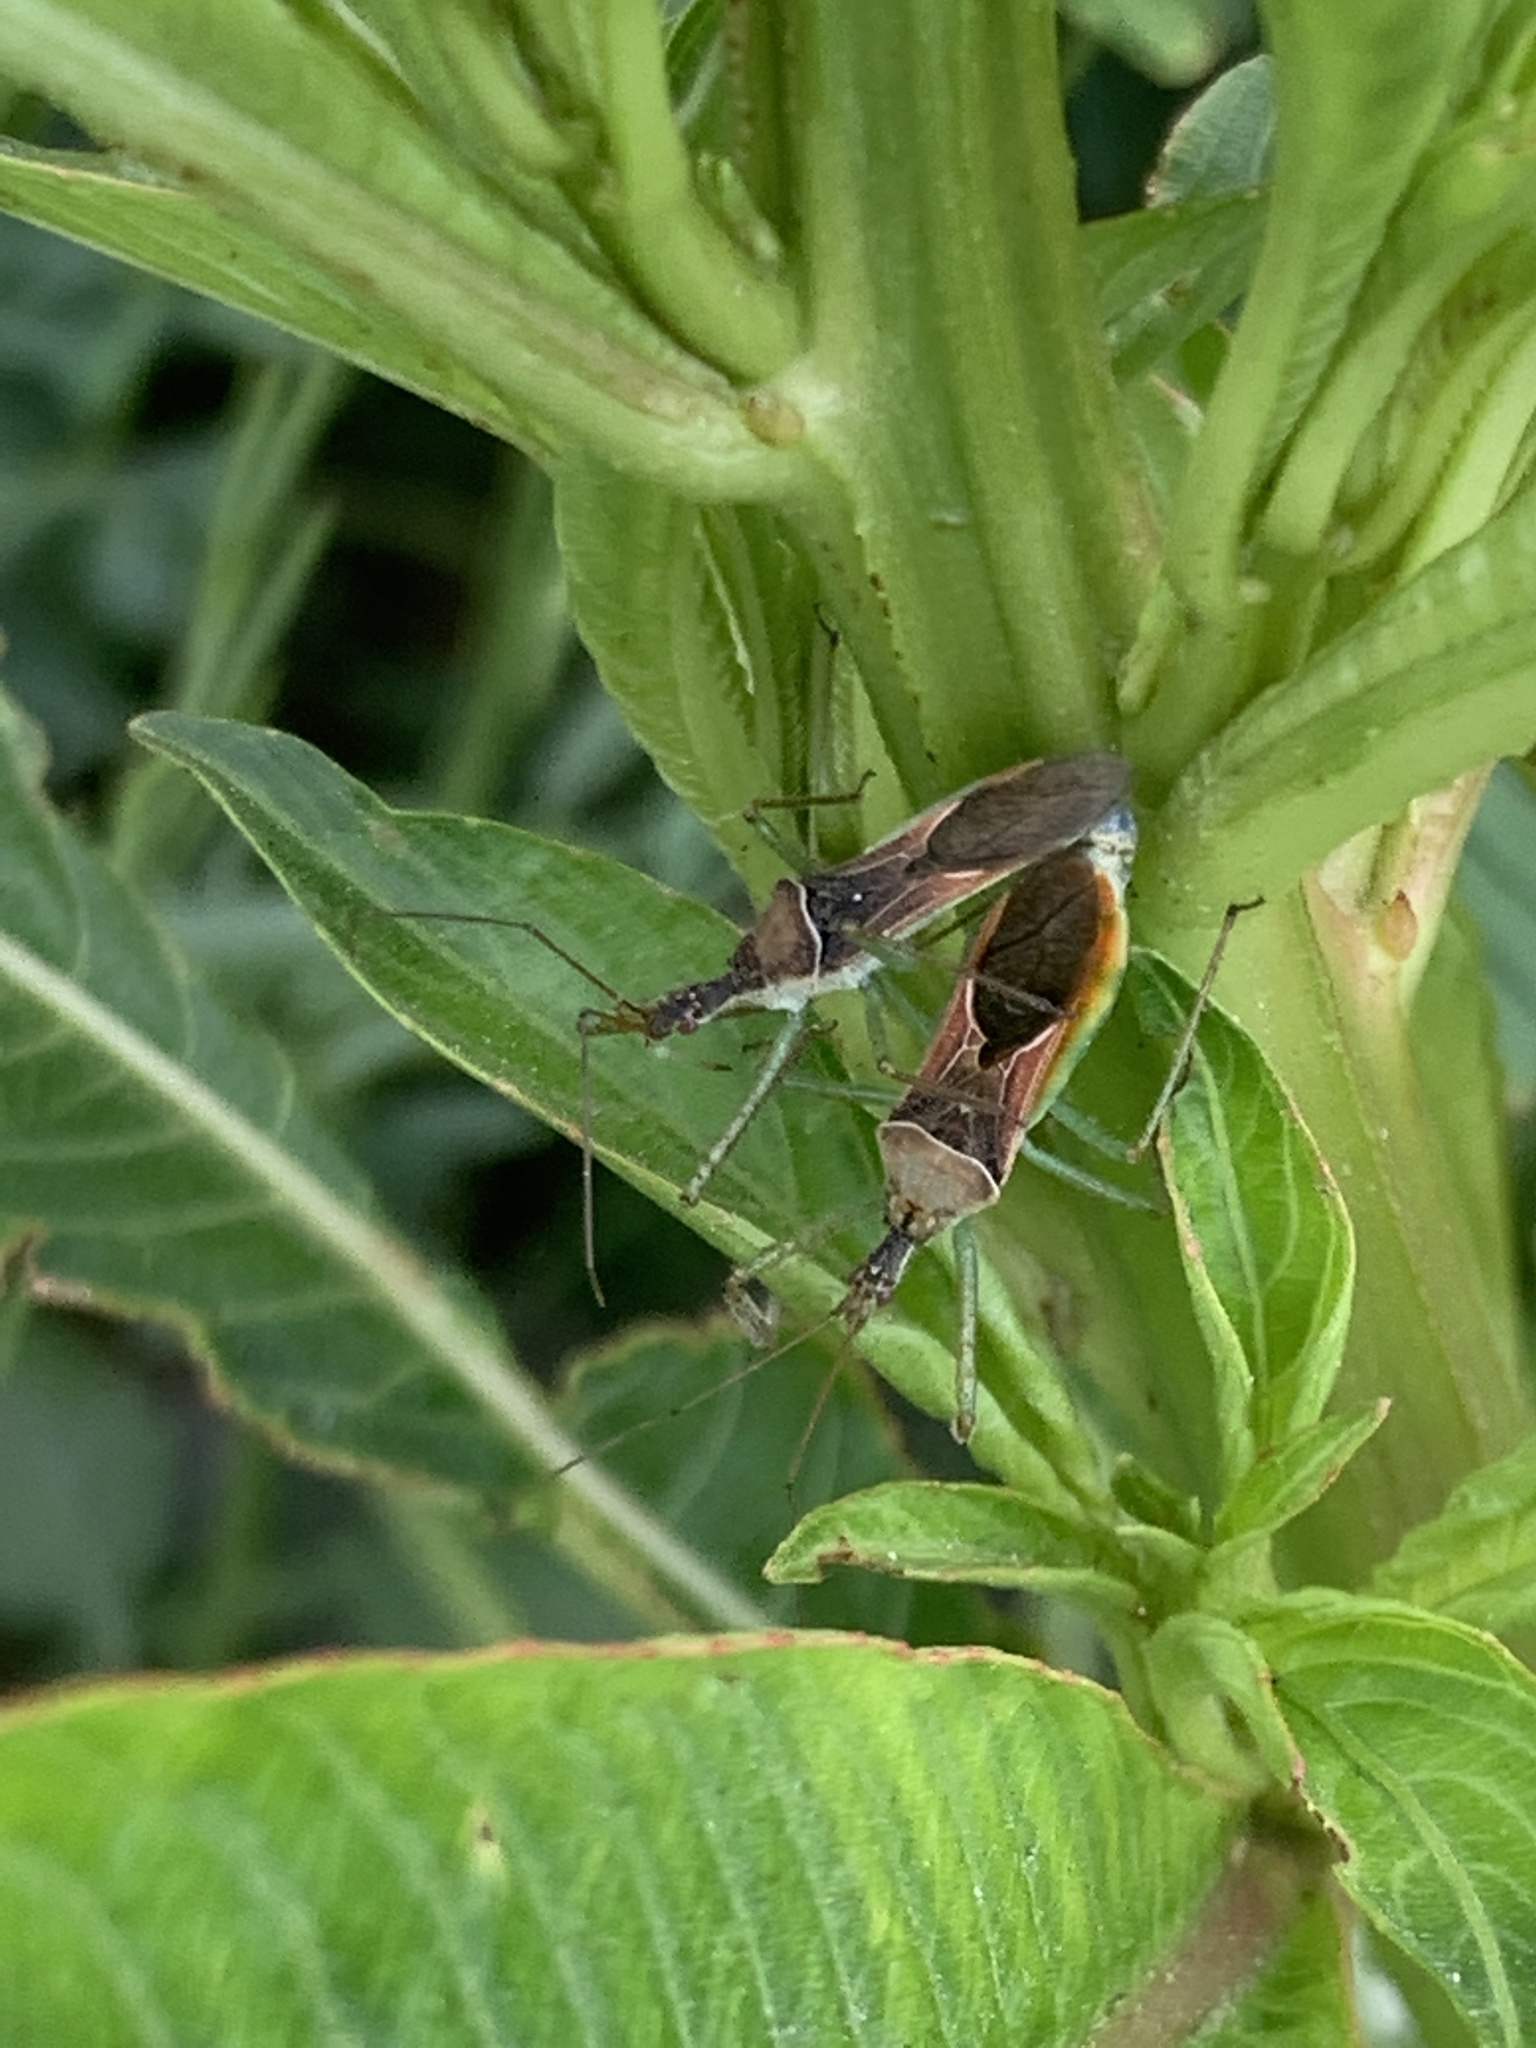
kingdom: Animalia
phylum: Arthropoda
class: Insecta
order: Hemiptera
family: Reduviidae
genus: Zelus
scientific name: Zelus renardii
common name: Assassin bug
